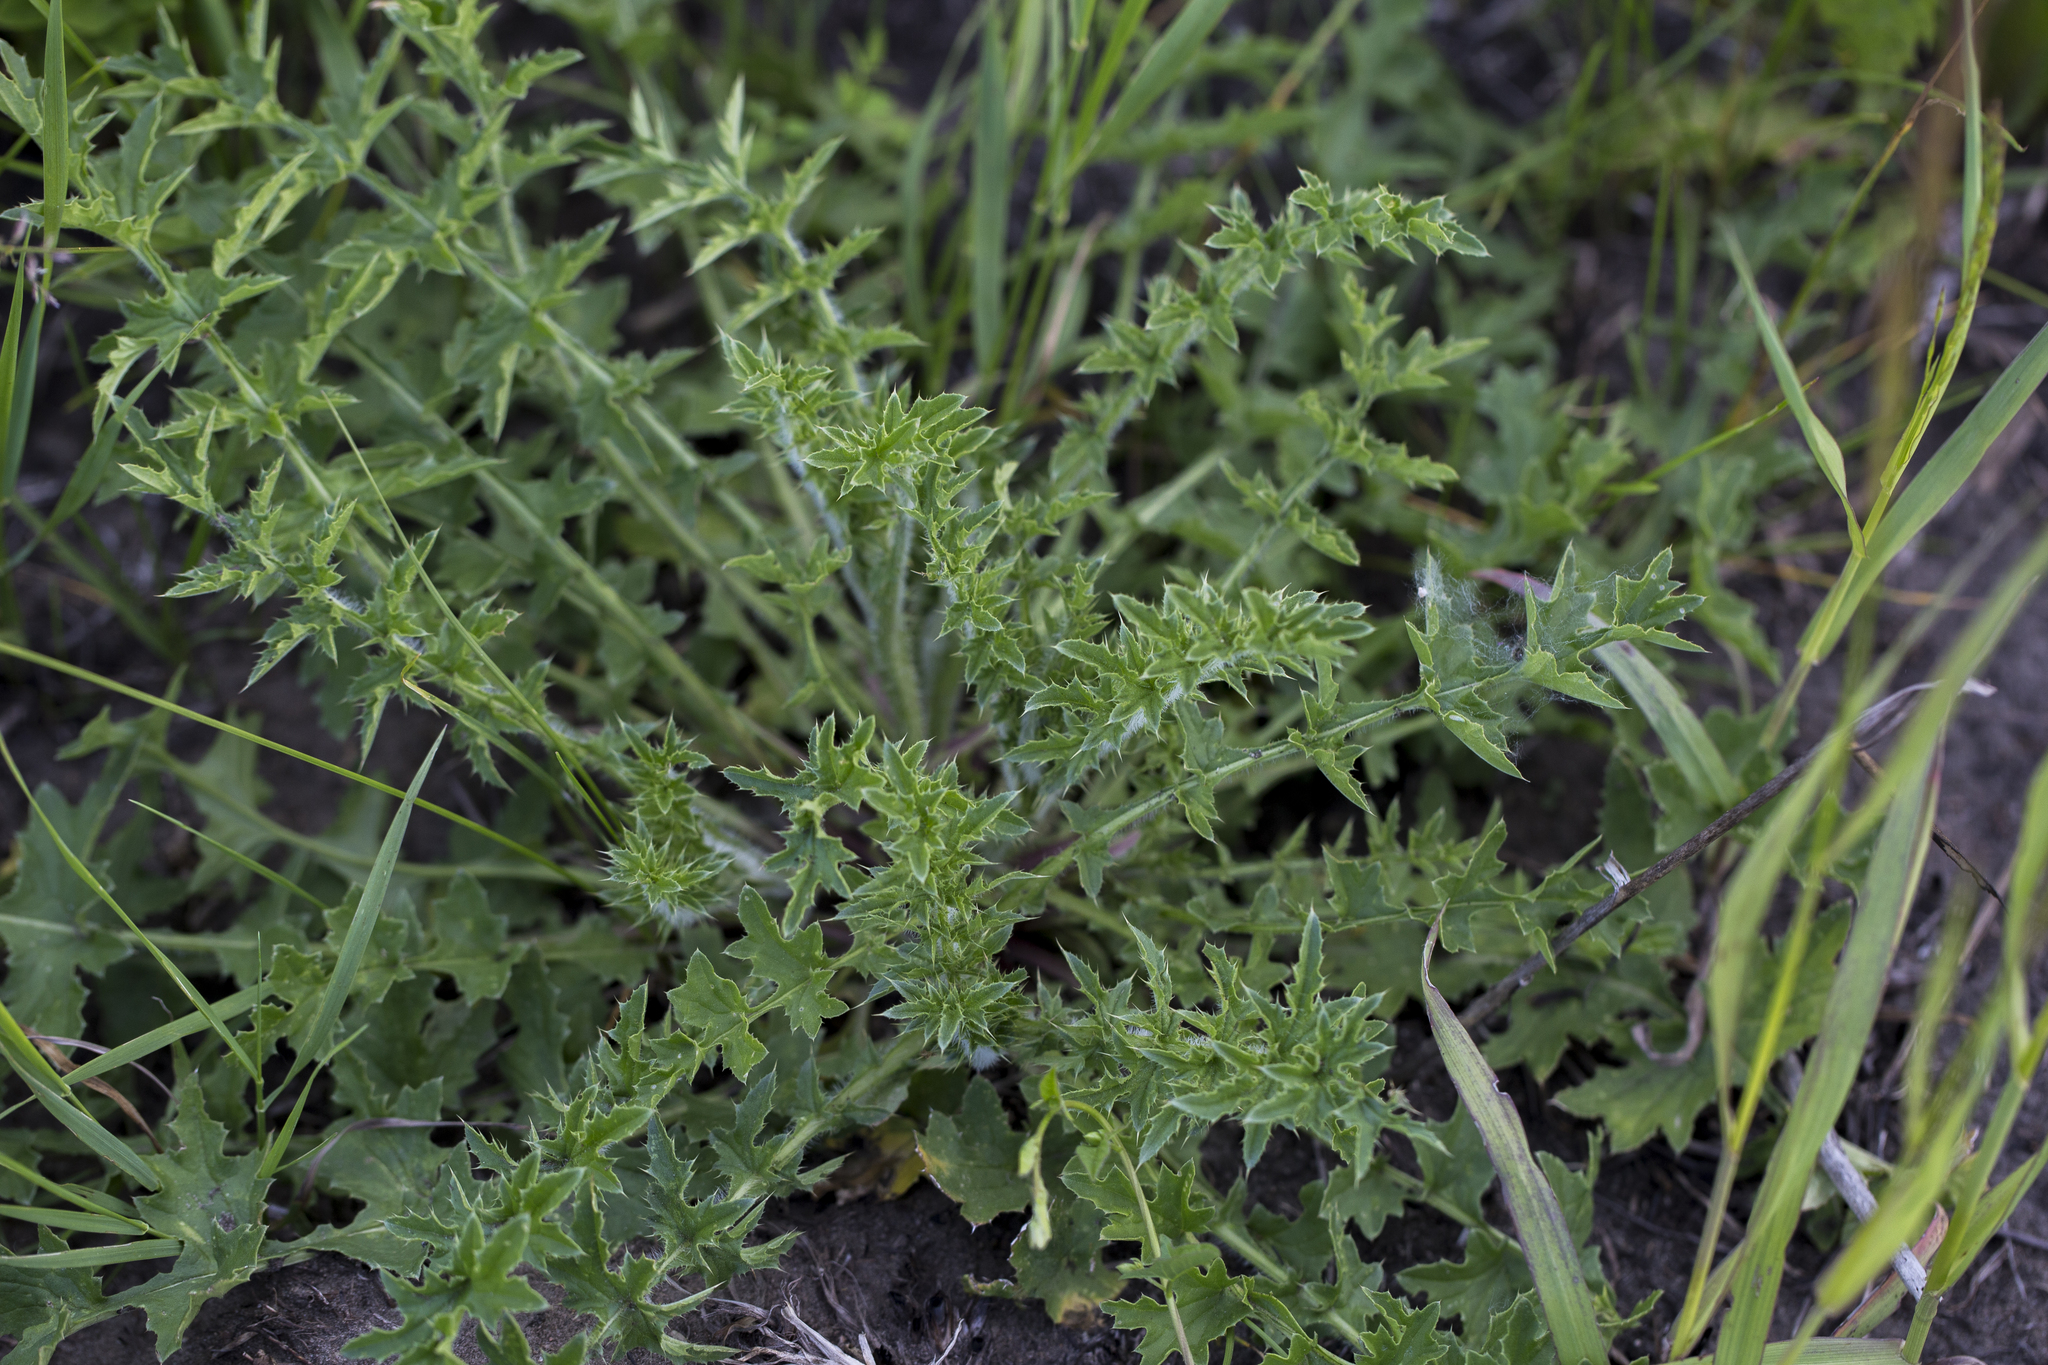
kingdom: Plantae
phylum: Tracheophyta
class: Magnoliopsida
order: Asterales
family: Asteraceae
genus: Carduus
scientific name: Carduus acanthoides
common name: Plumeless thistle
